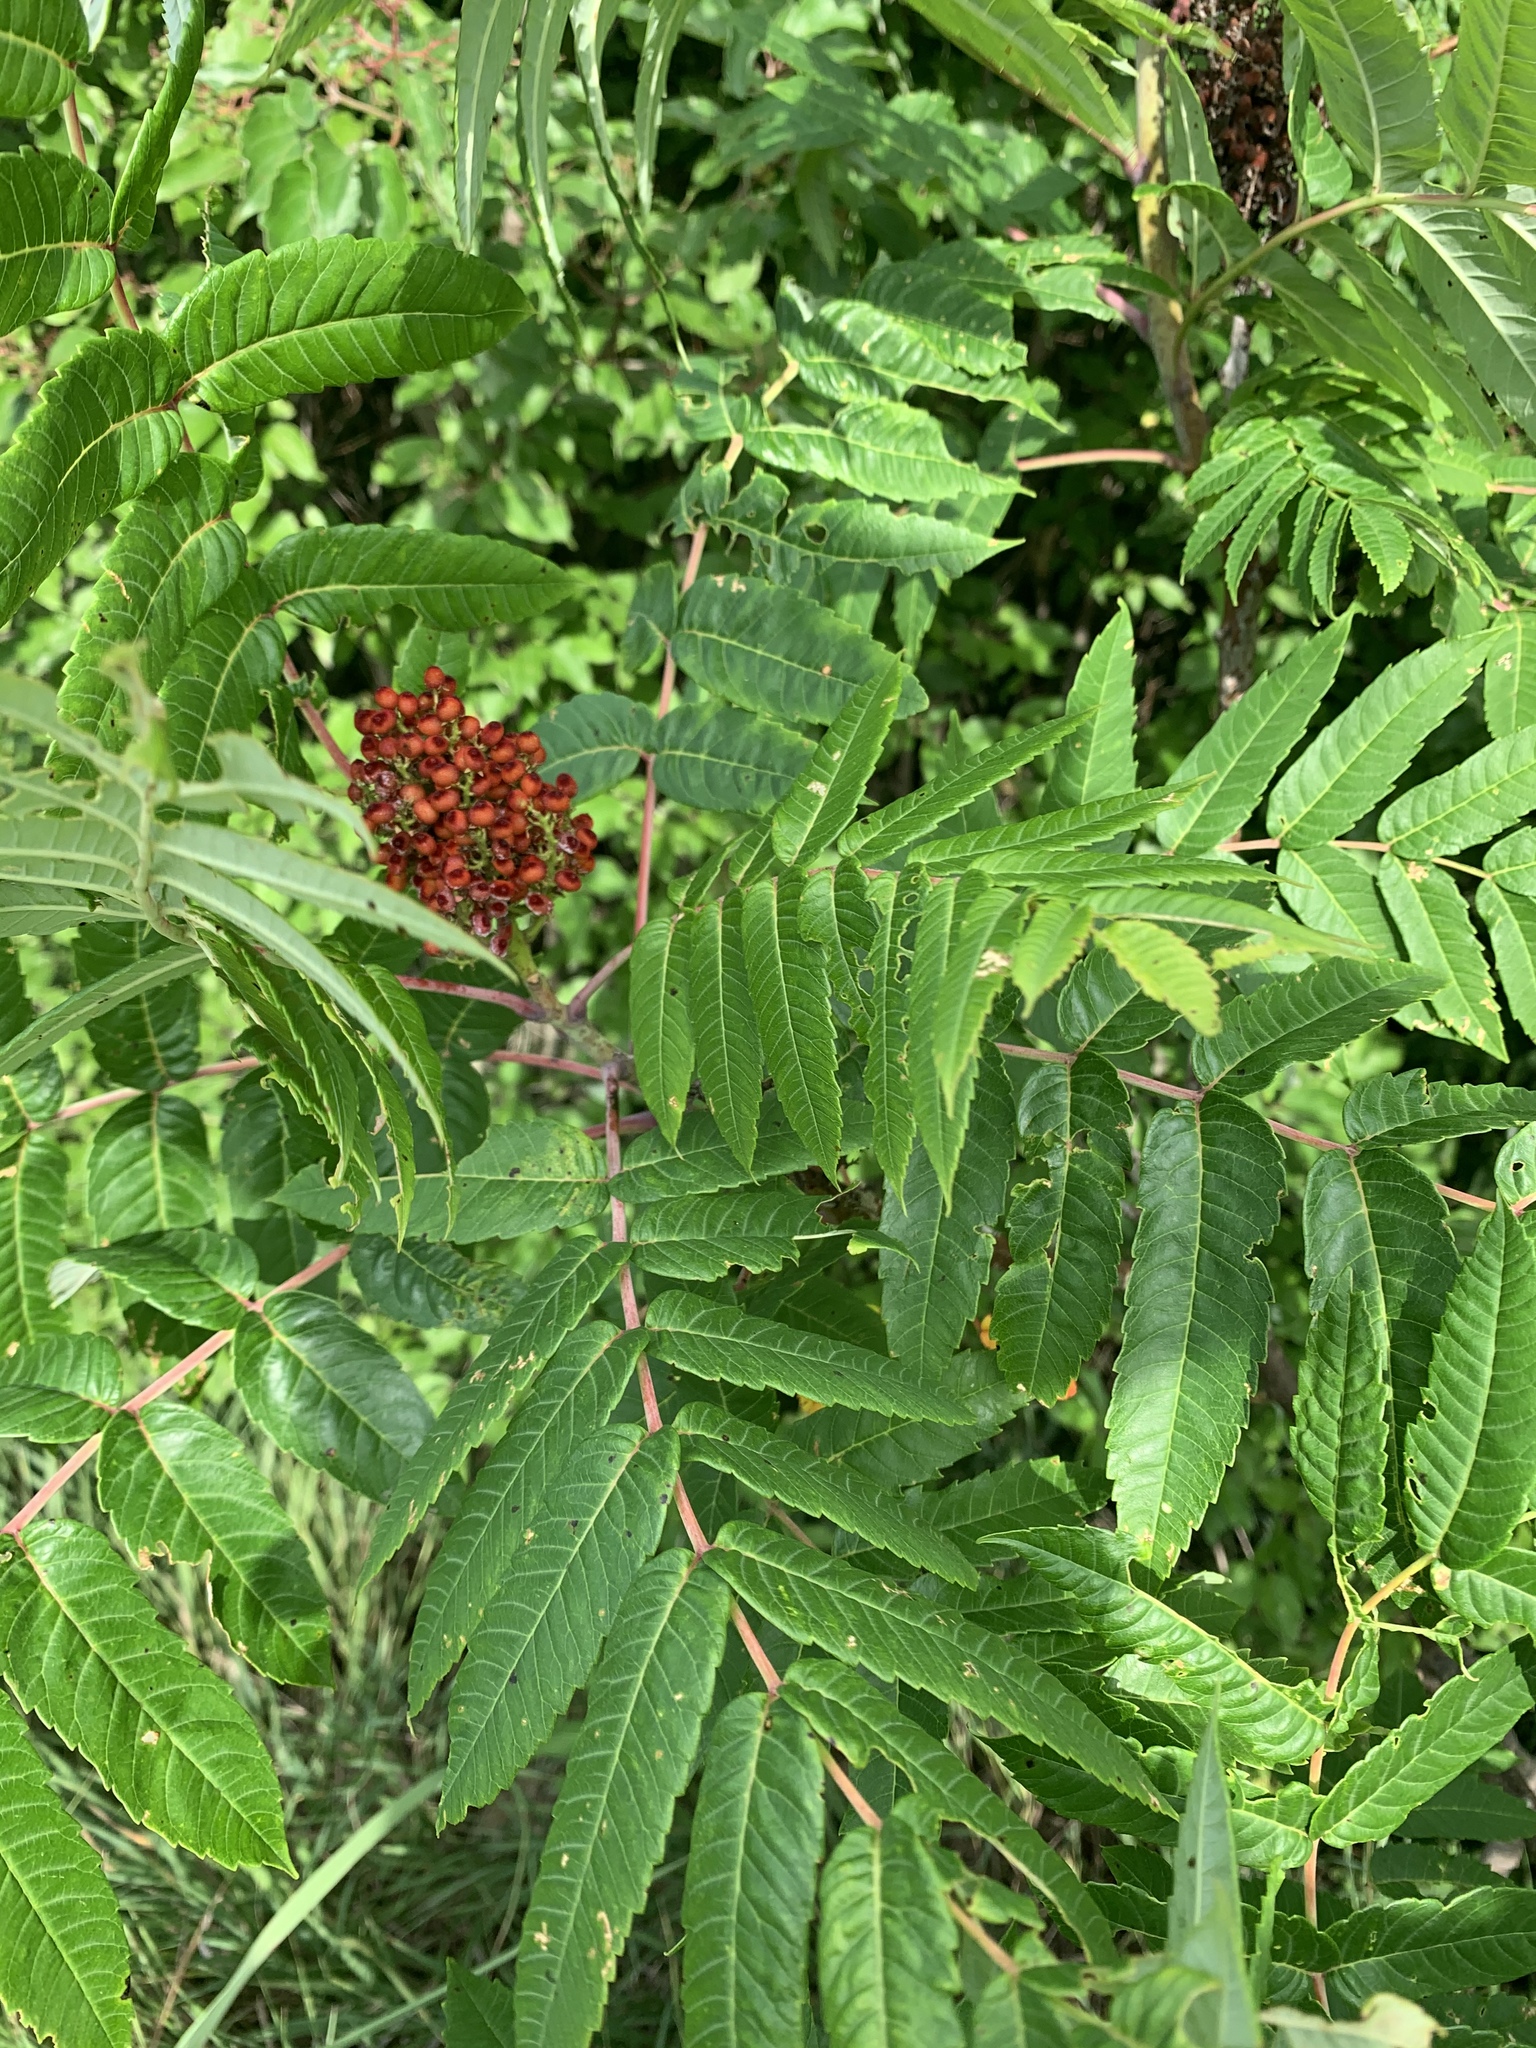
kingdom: Plantae
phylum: Tracheophyta
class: Magnoliopsida
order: Sapindales
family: Anacardiaceae
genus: Rhus
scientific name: Rhus glabra
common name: Scarlet sumac
